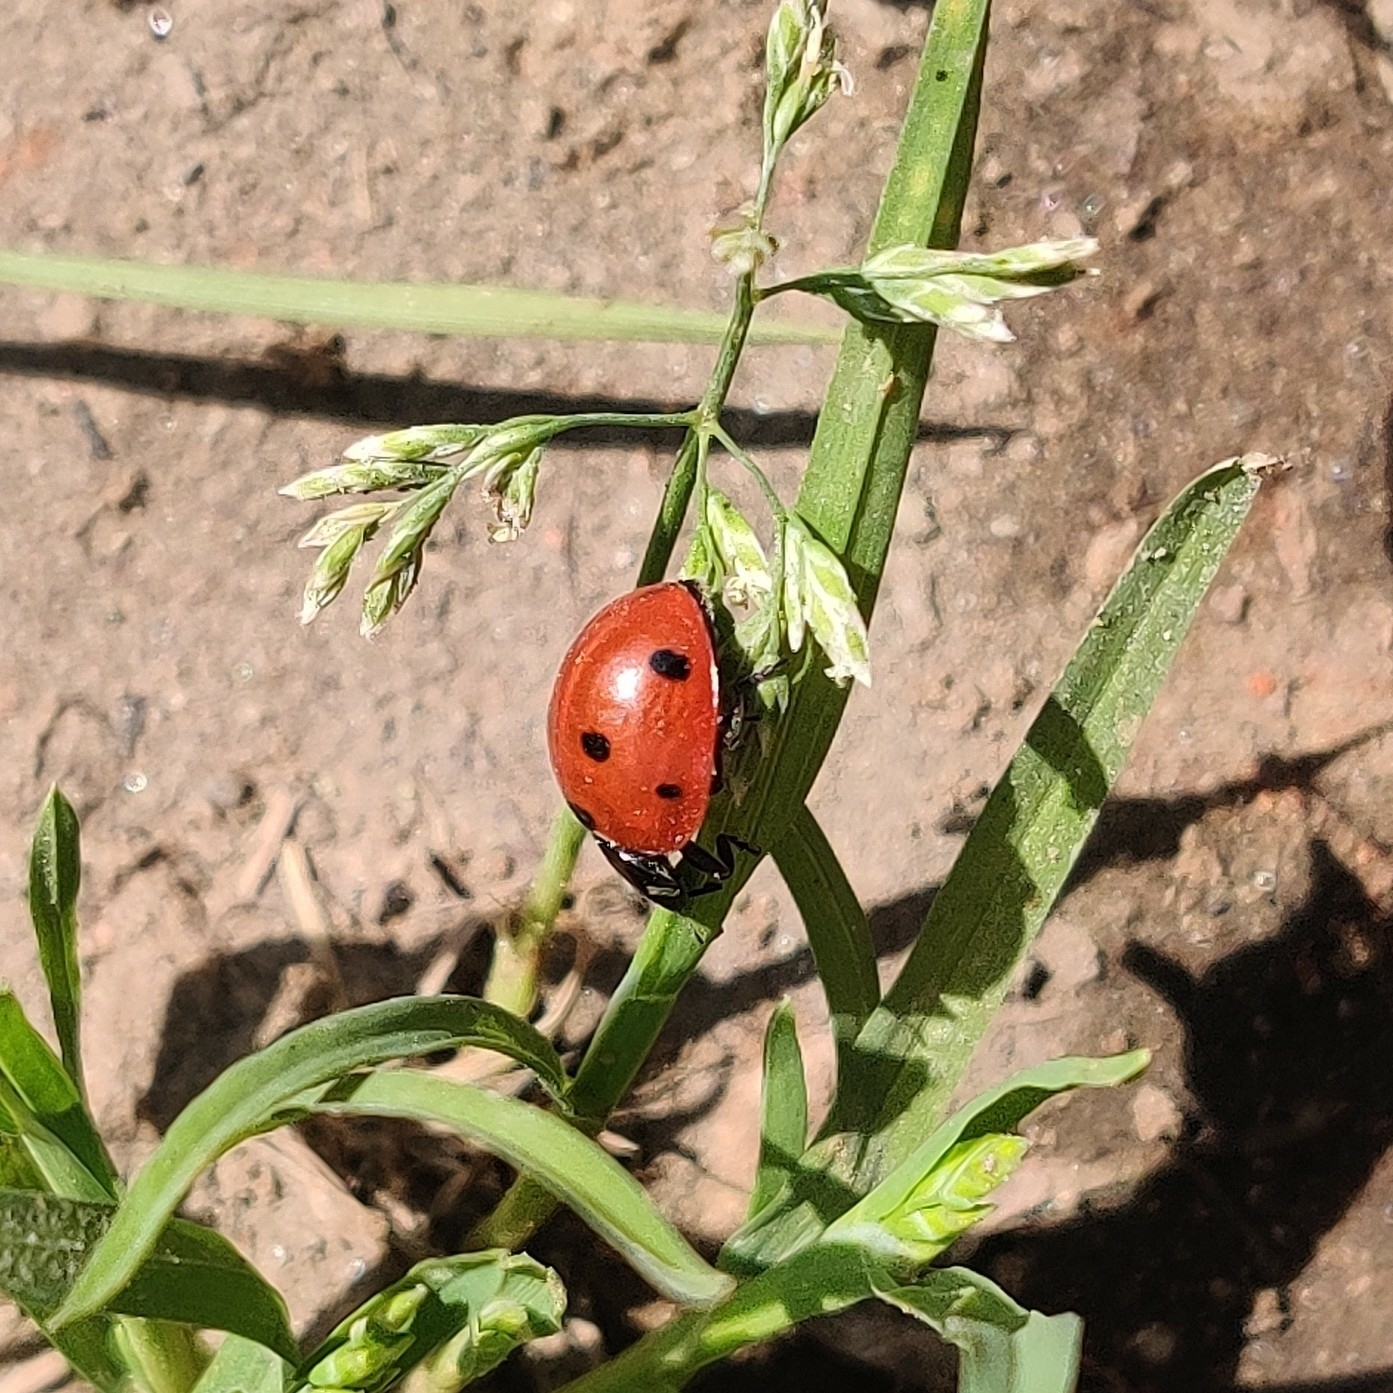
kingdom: Animalia
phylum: Arthropoda
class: Insecta
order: Coleoptera
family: Coccinellidae
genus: Coccinella
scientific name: Coccinella septempunctata
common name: Sevenspotted lady beetle
